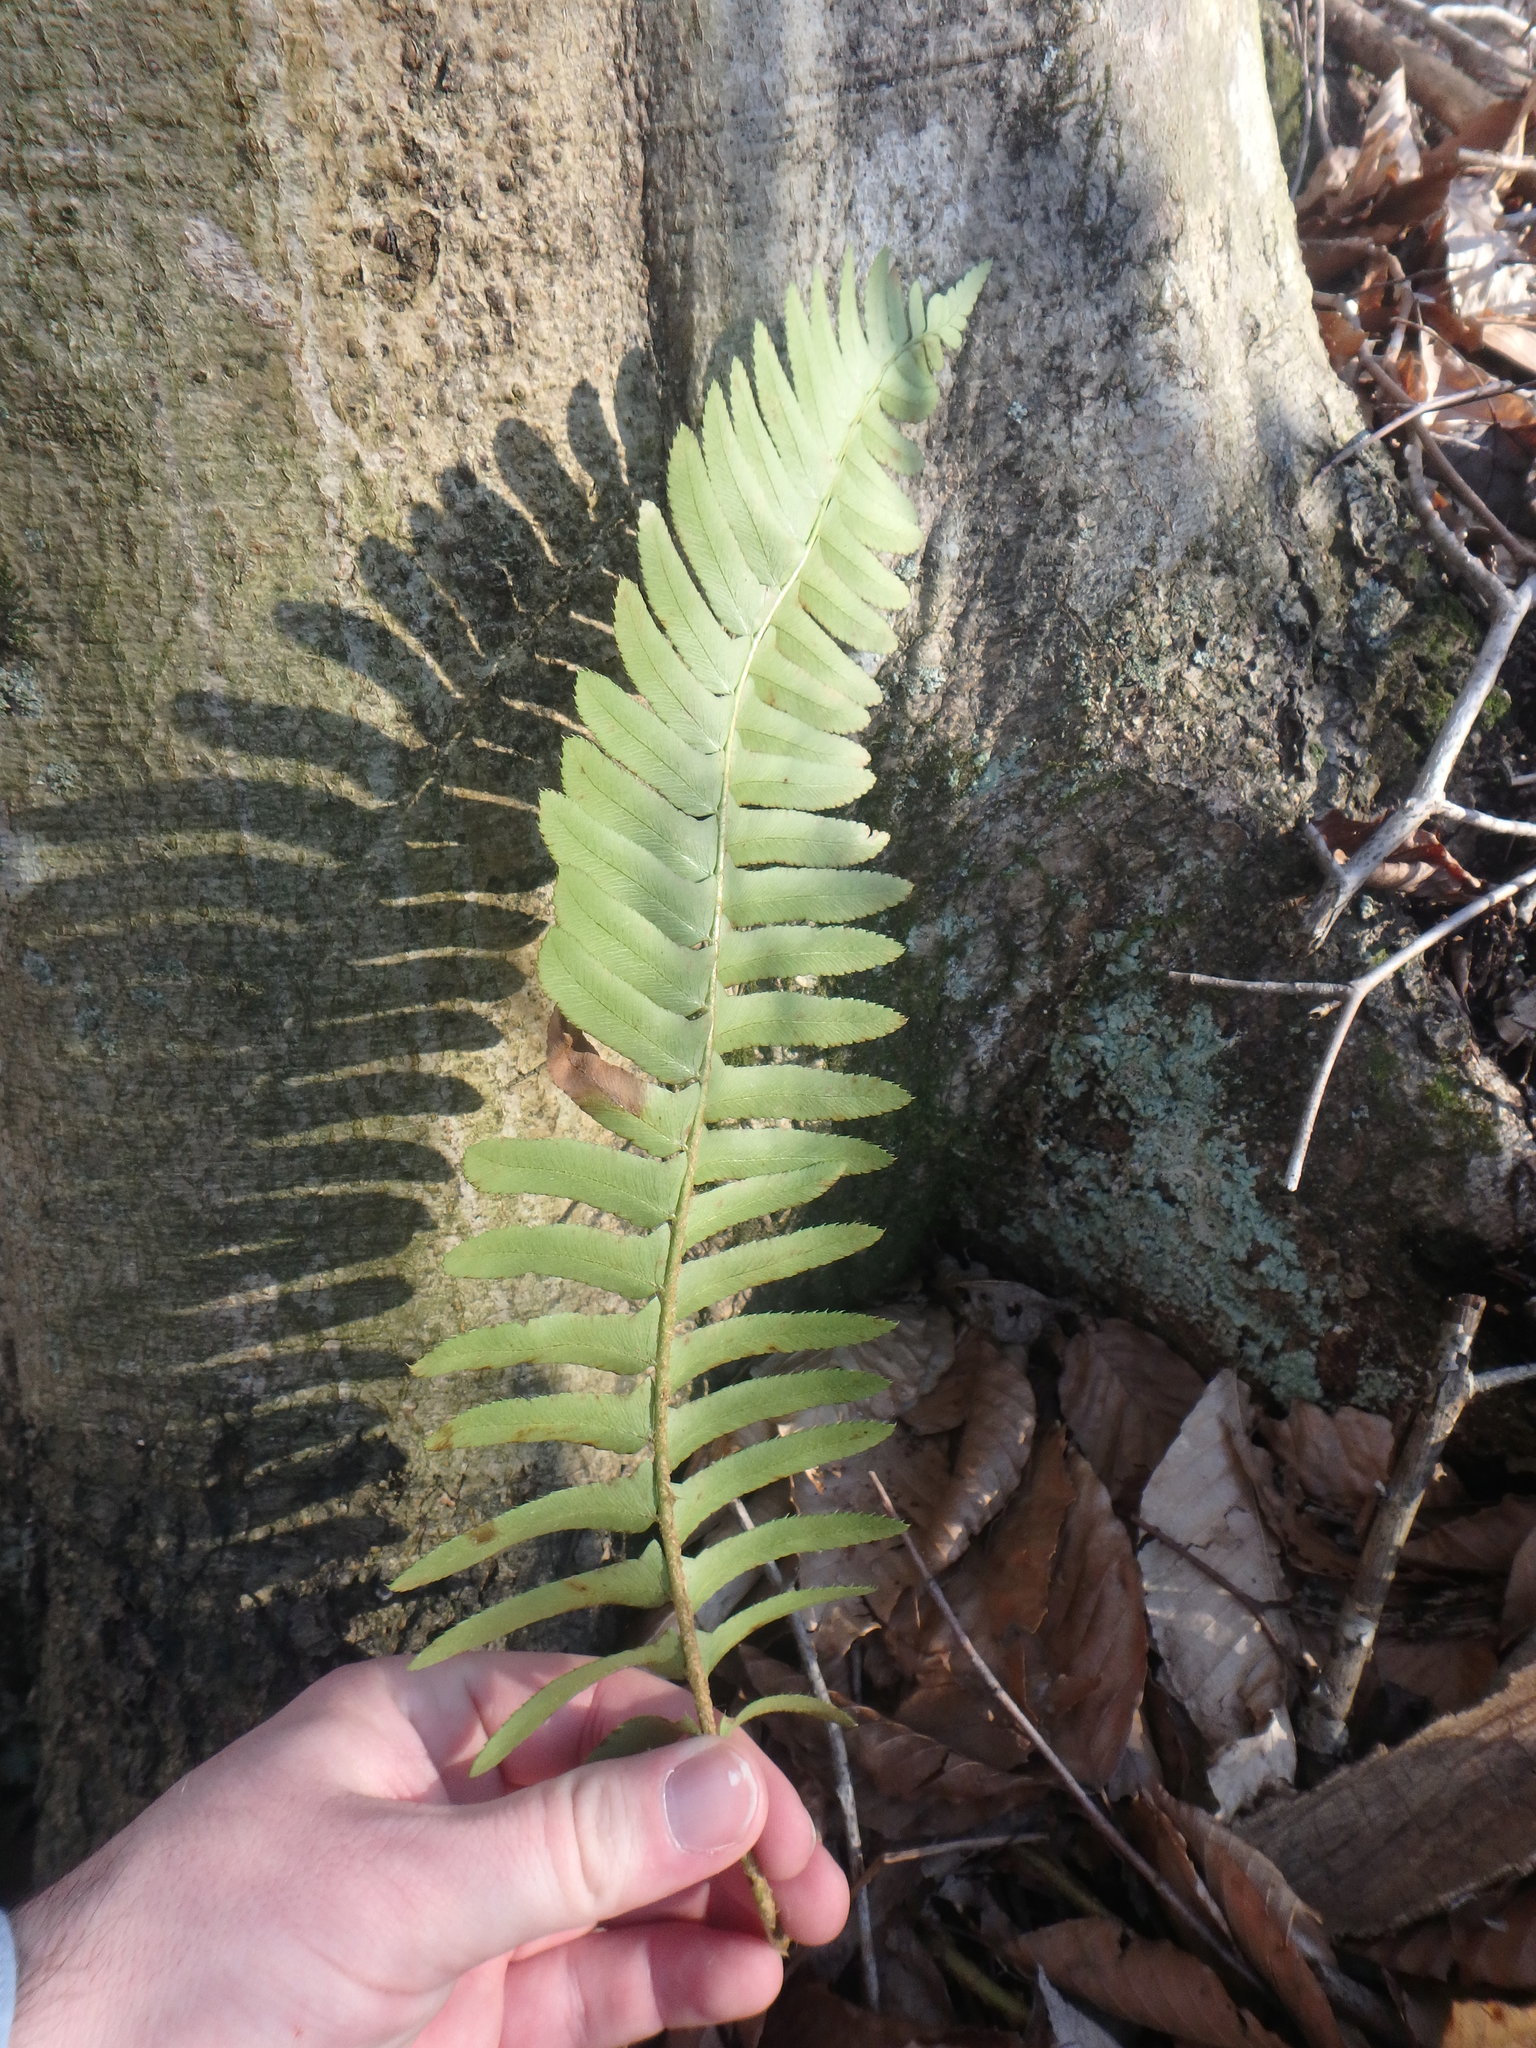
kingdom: Plantae
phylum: Tracheophyta
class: Polypodiopsida
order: Polypodiales
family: Dryopteridaceae
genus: Polystichum
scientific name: Polystichum acrostichoides
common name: Christmas fern
